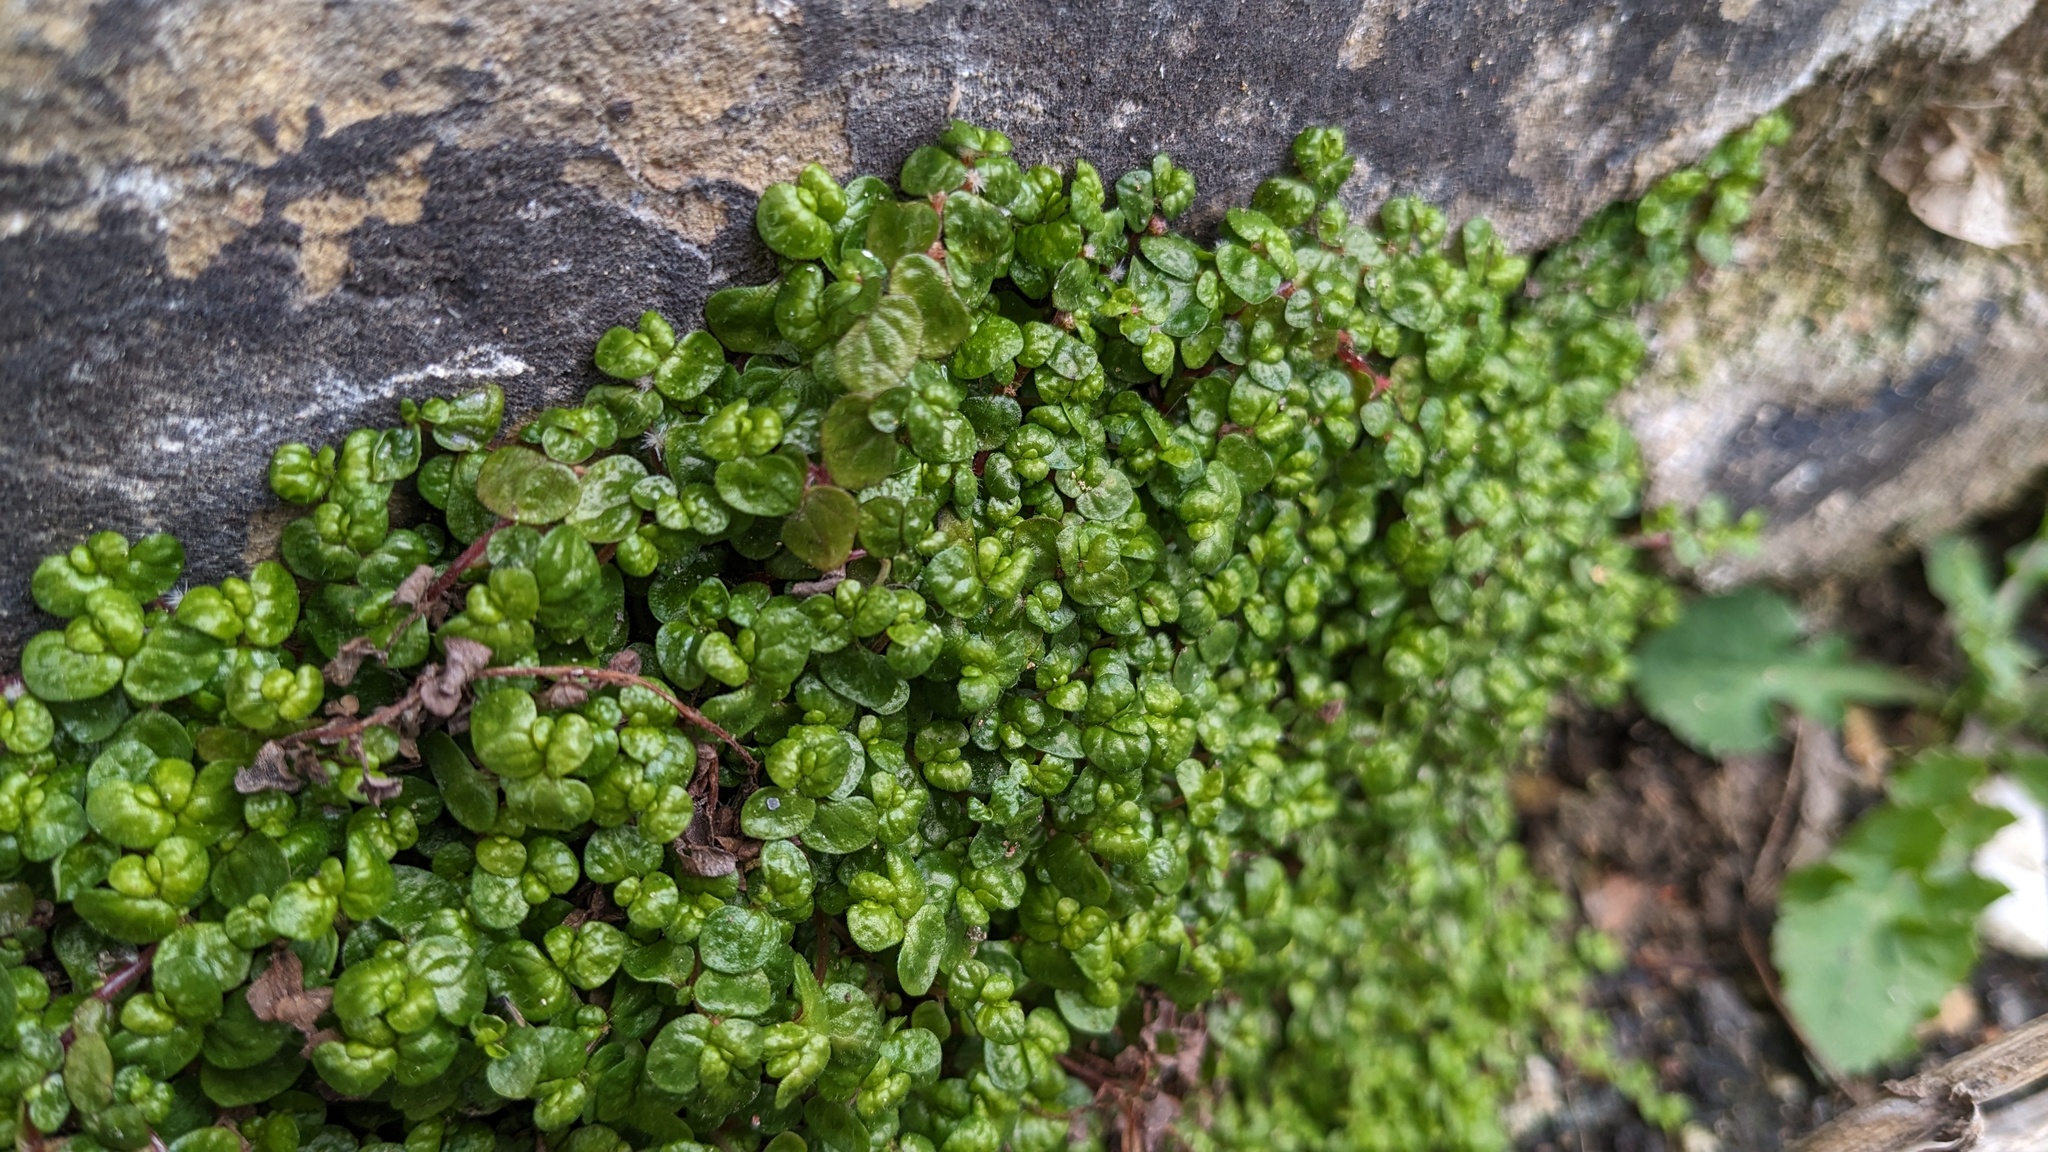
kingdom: Plantae
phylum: Tracheophyta
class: Magnoliopsida
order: Rosales
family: Urticaceae
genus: Soleirolia
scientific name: Soleirolia soleirolii
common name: Mind-your-own-business
